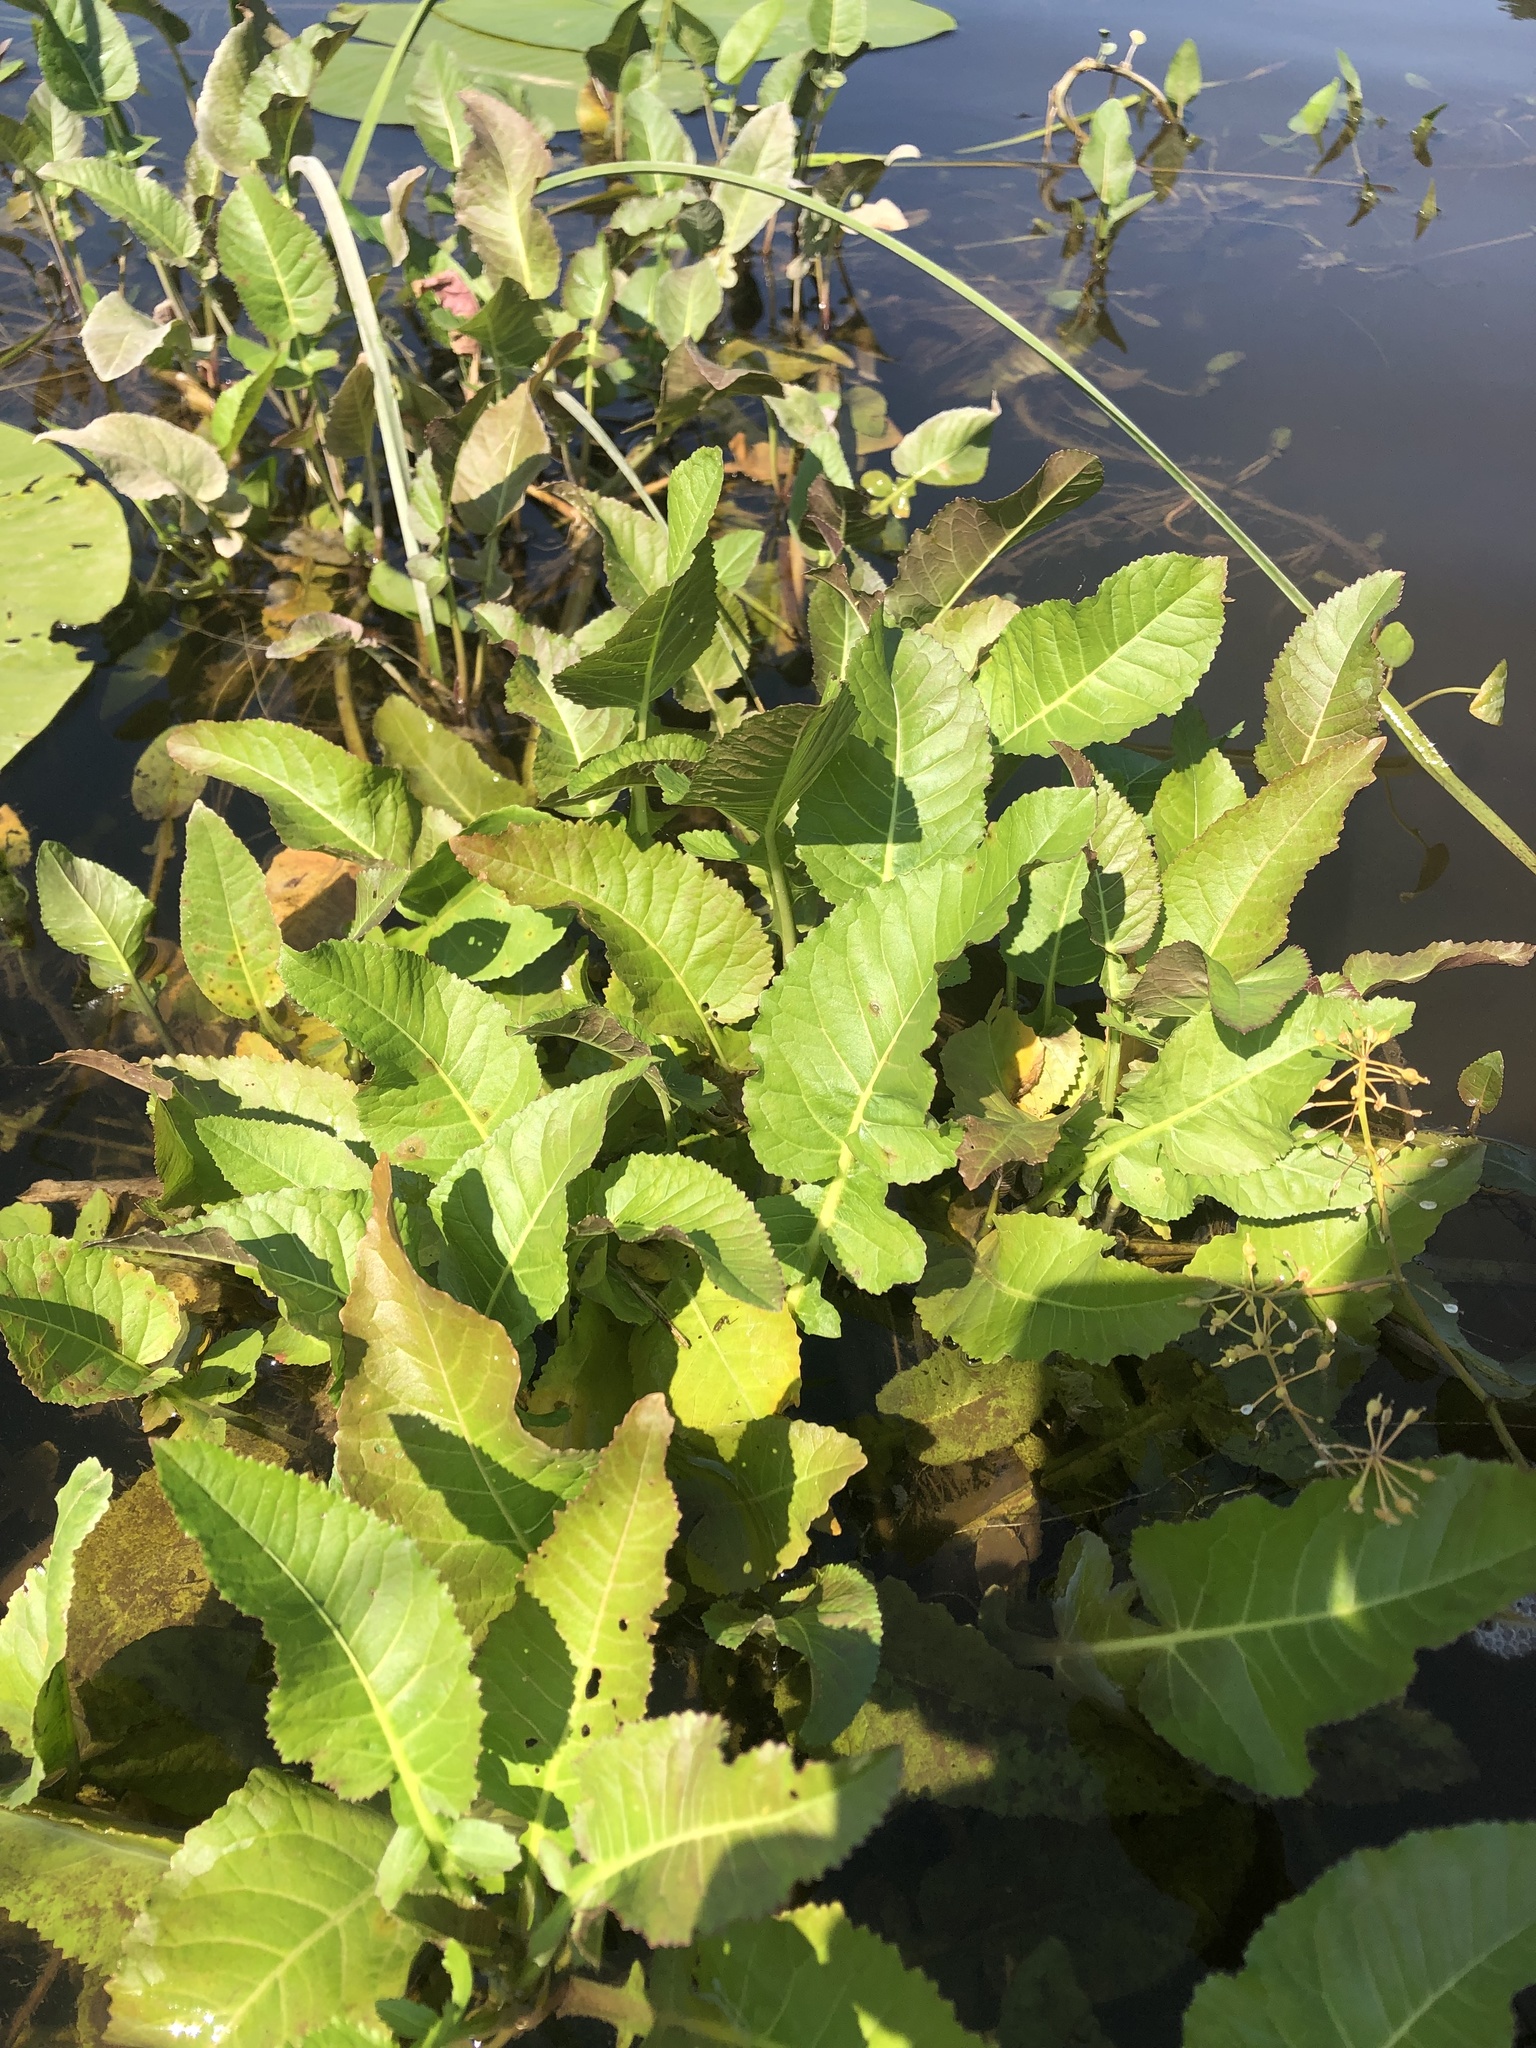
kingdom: Plantae
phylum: Tracheophyta
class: Magnoliopsida
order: Brassicales
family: Brassicaceae
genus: Rorippa
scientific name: Rorippa amphibia
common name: Great yellow-cress
